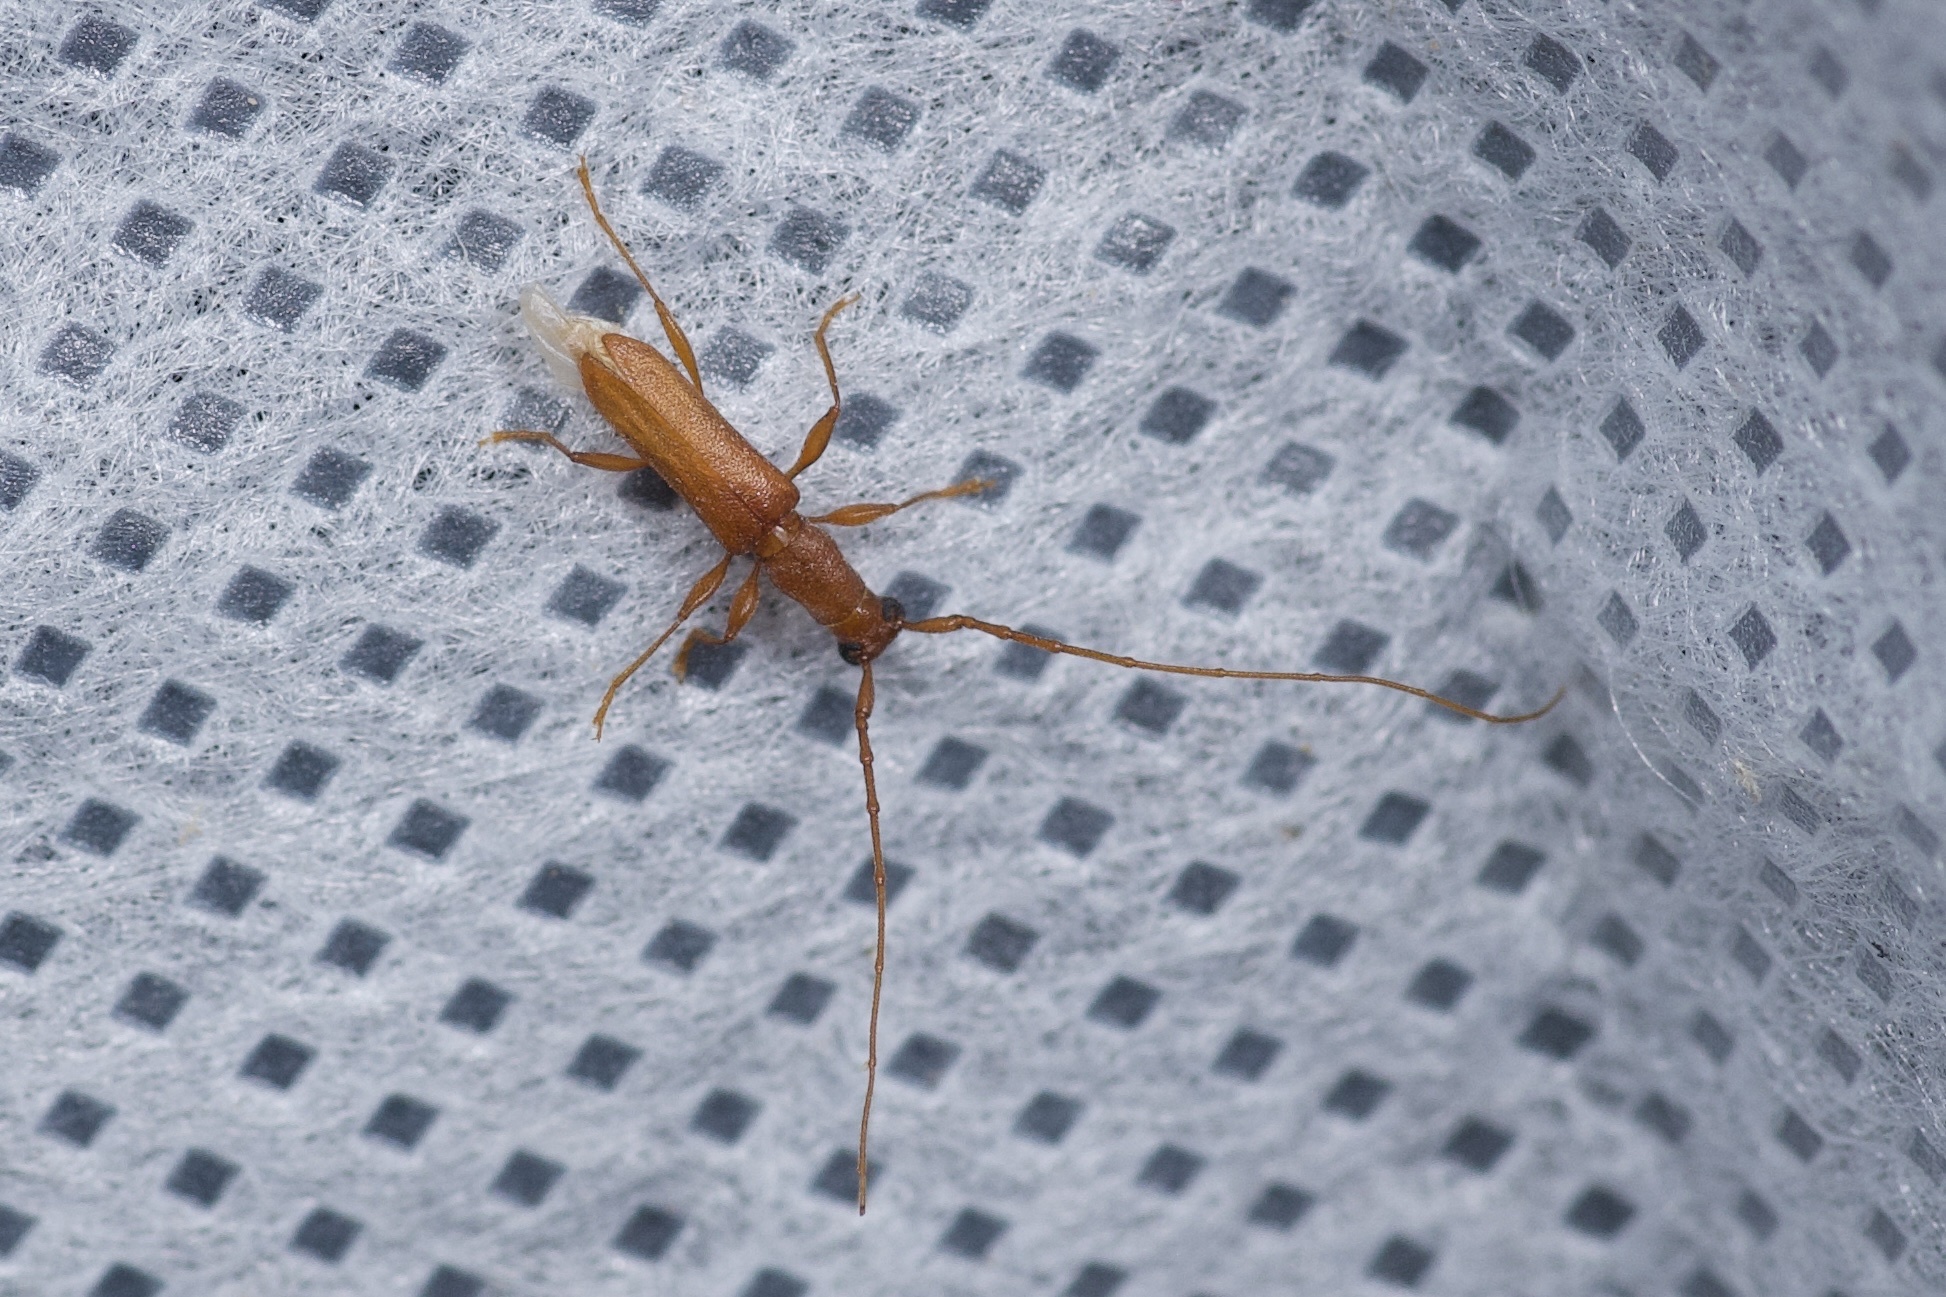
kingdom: Animalia
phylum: Arthropoda
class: Insecta
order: Coleoptera
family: Cerambycidae
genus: Hypexilis
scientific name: Hypexilis pallida
